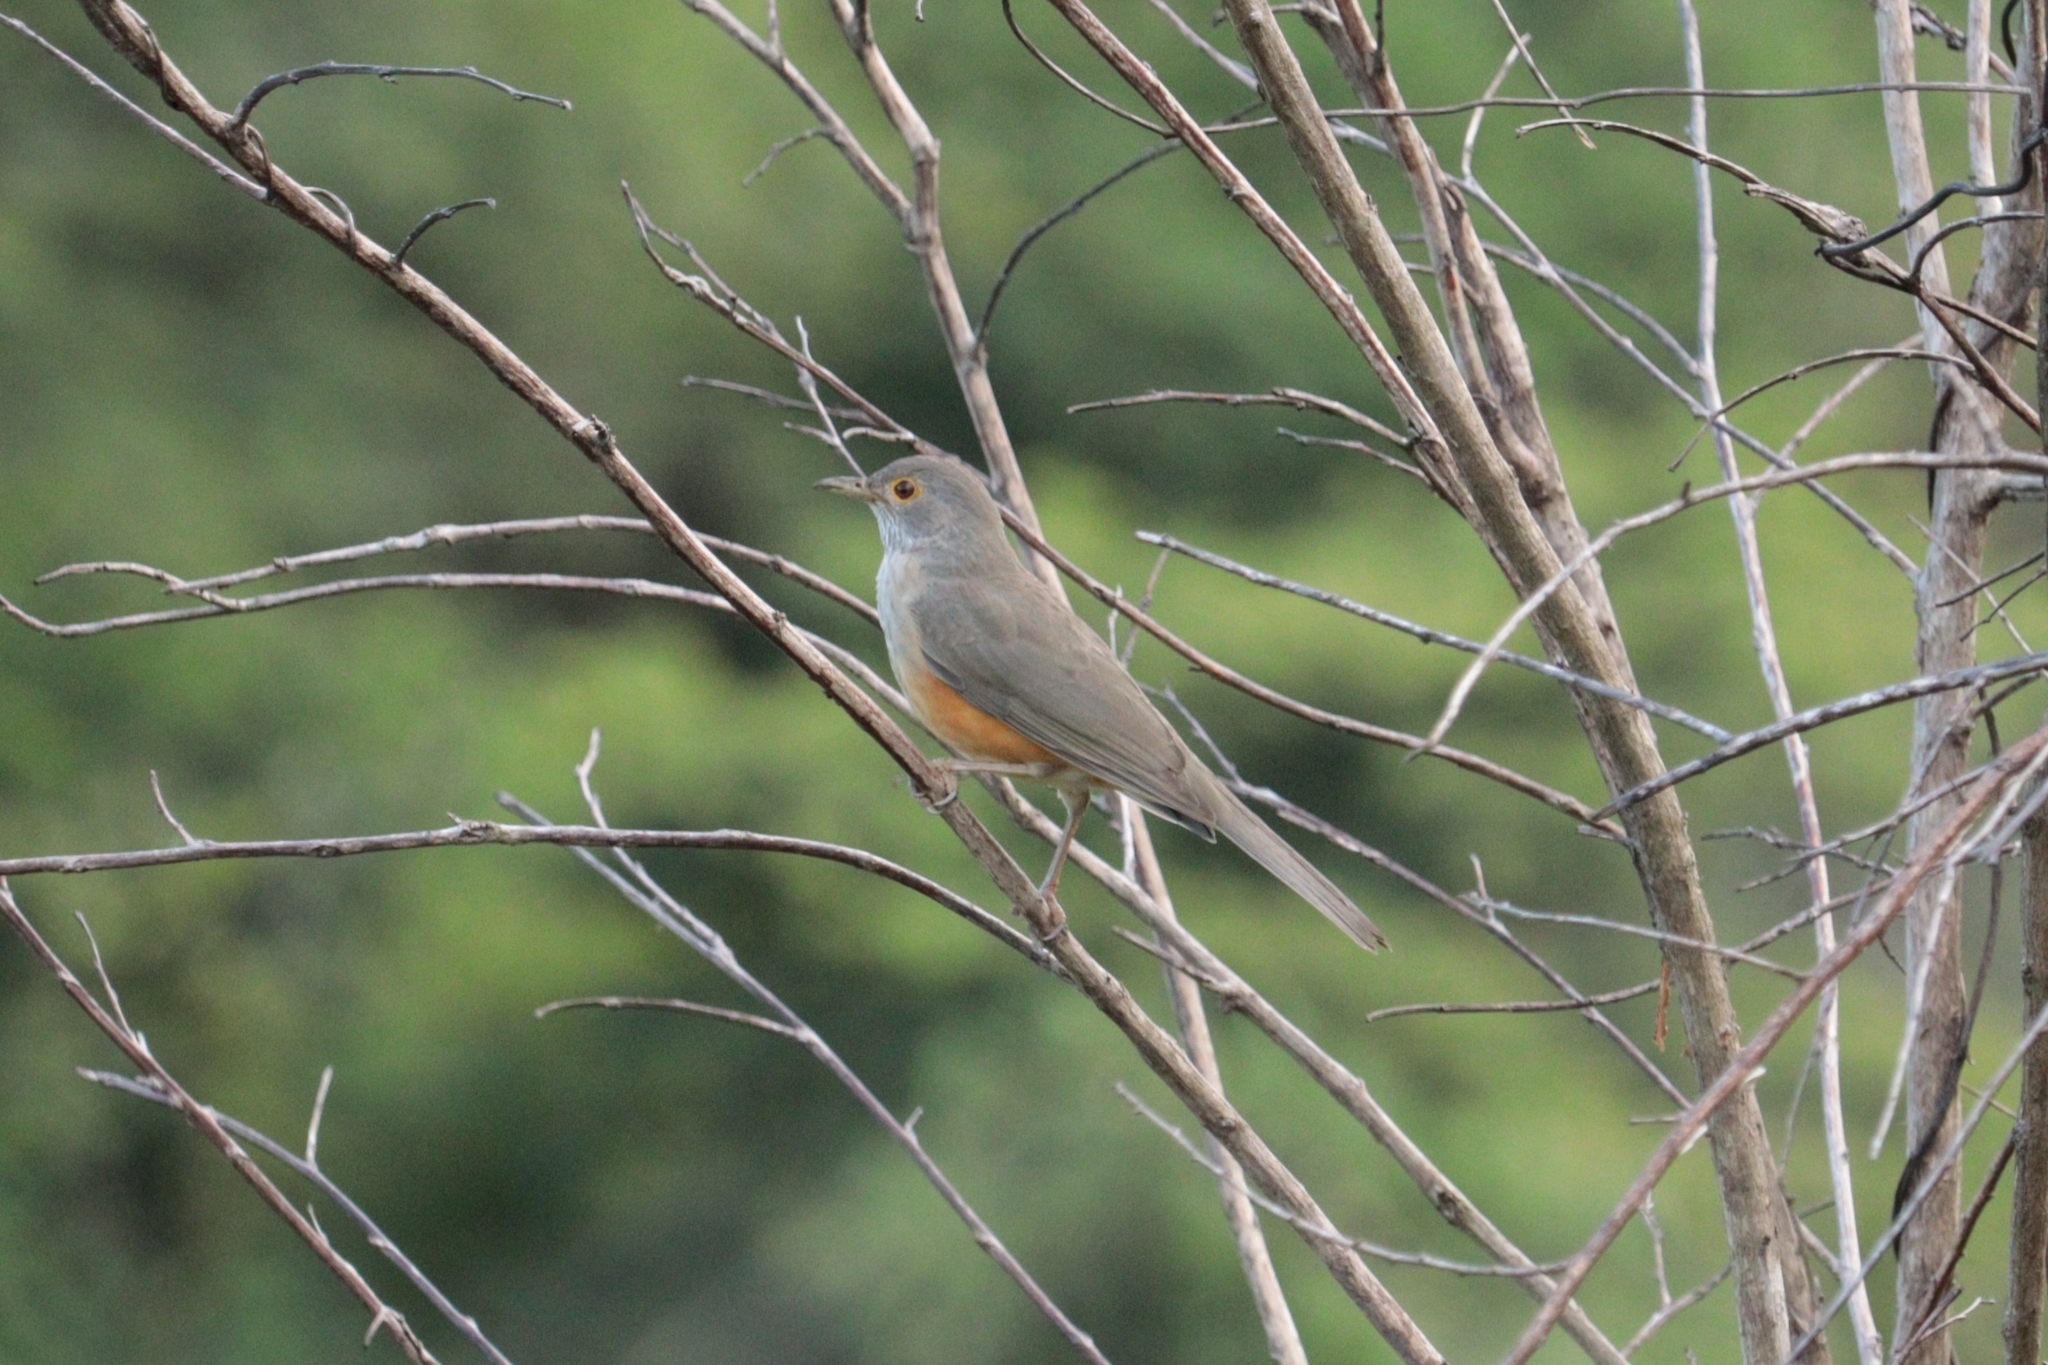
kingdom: Animalia
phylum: Chordata
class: Aves
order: Passeriformes
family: Turdidae
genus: Turdus
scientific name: Turdus rufiventris
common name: Rufous-bellied thrush
